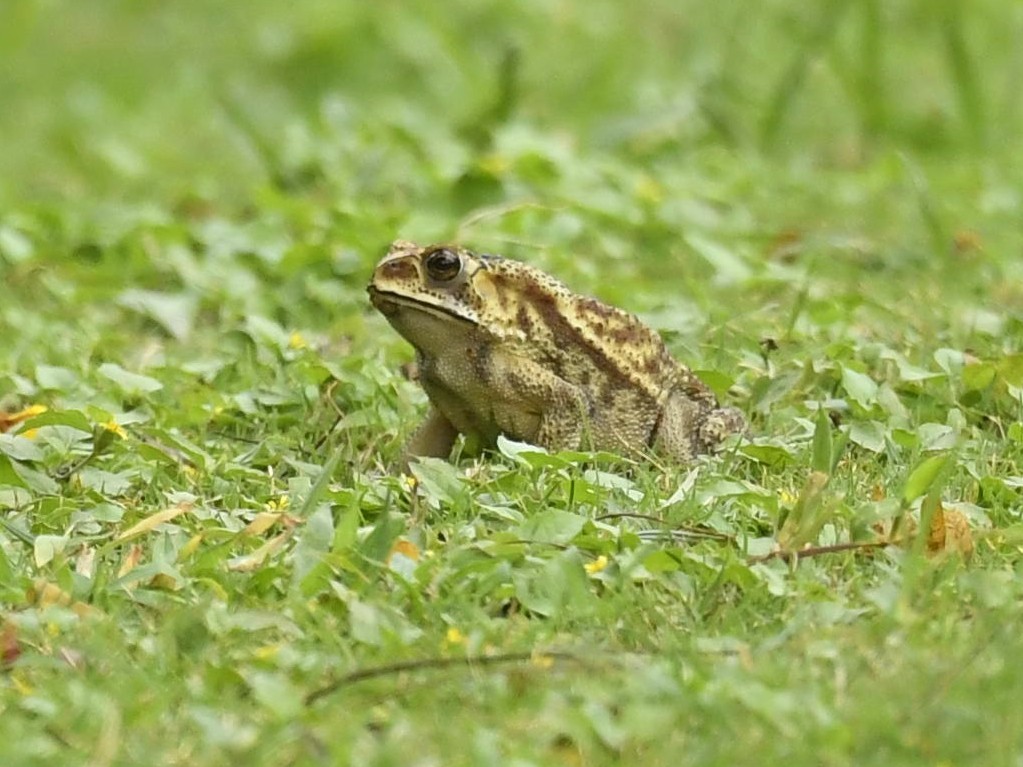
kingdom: Animalia
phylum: Chordata
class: Amphibia
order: Anura
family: Bufonidae
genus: Duttaphrynus
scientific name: Duttaphrynus melanostictus
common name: Common sunda toad
